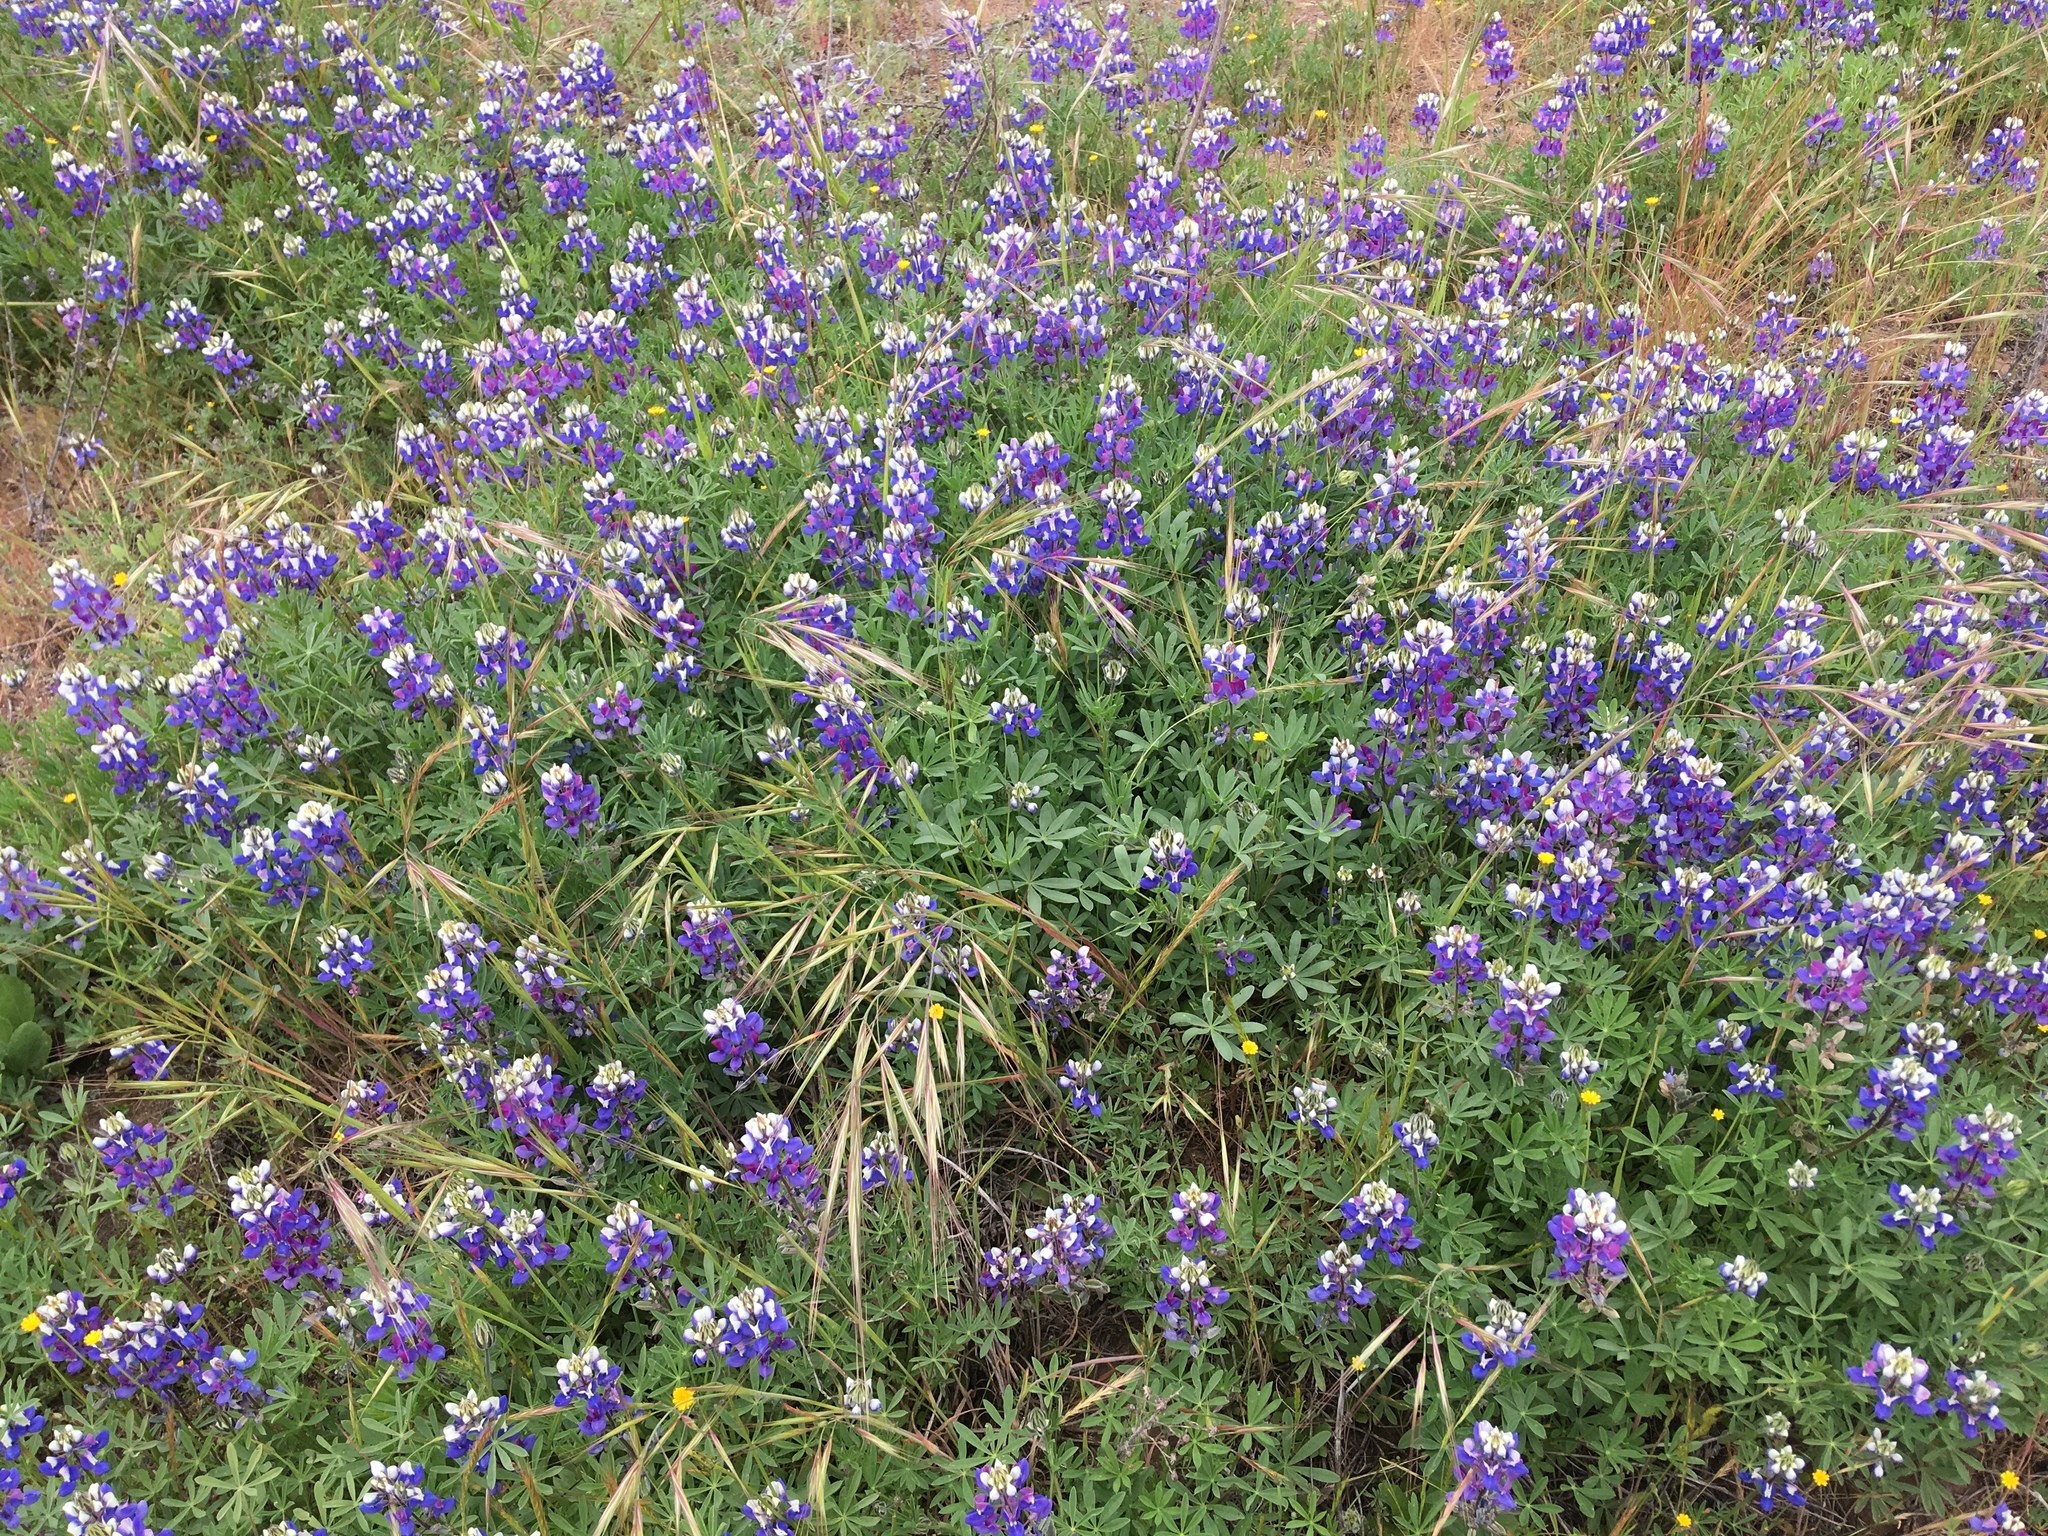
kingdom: Plantae
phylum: Tracheophyta
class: Magnoliopsida
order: Fabales
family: Fabaceae
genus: Lupinus
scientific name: Lupinus nanus
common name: Orean blue lupin
